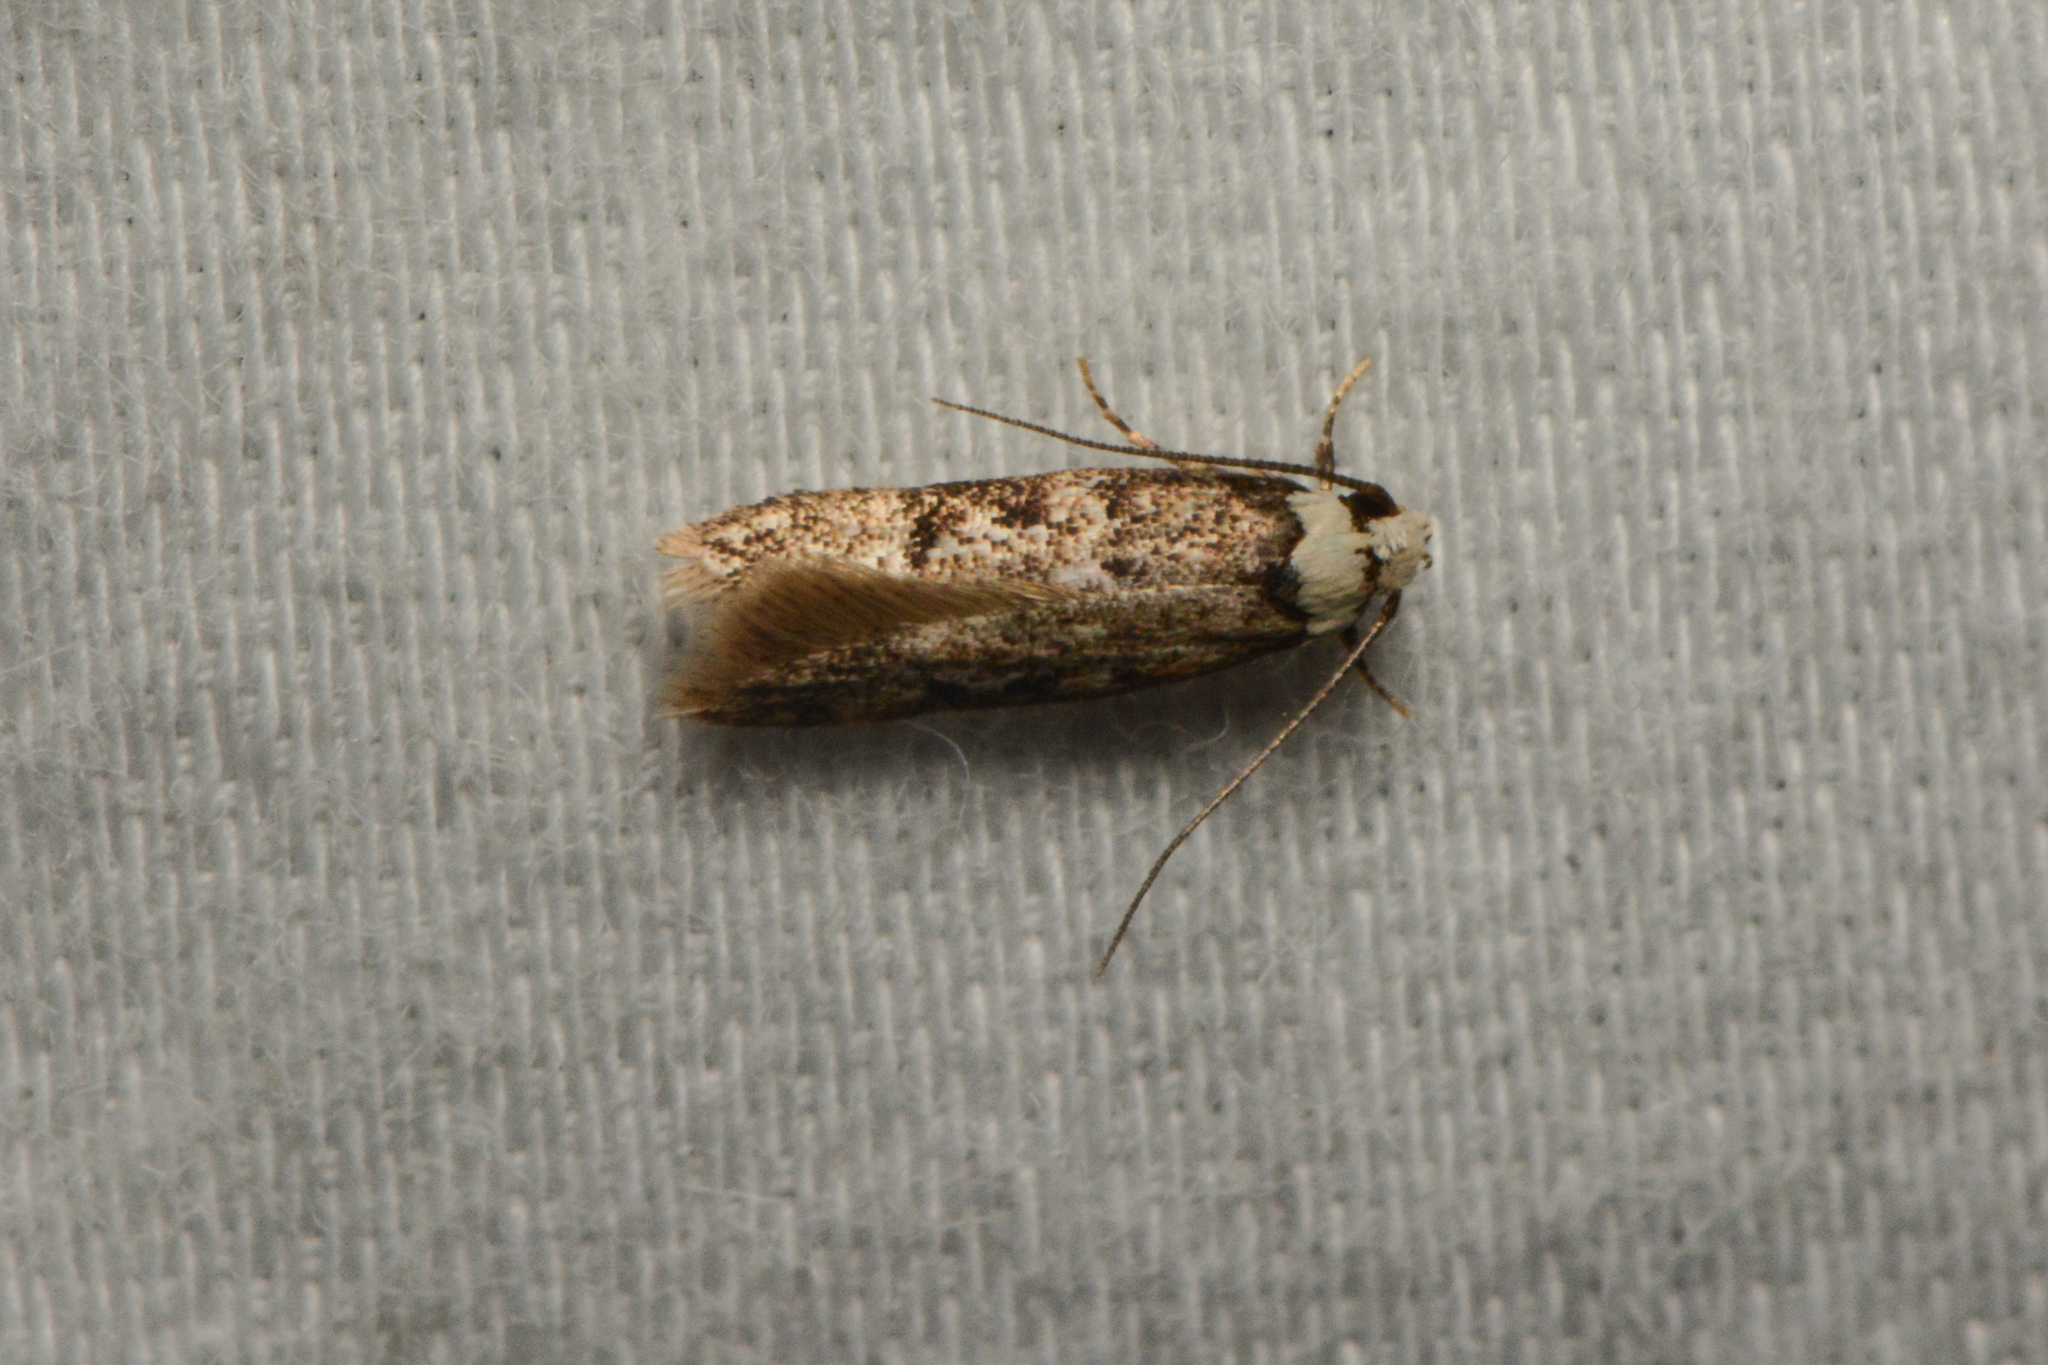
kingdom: Animalia
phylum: Arthropoda
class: Insecta
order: Lepidoptera
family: Oecophoridae
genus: Endrosis
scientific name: Endrosis sarcitrella
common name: White-shouldered house moth
